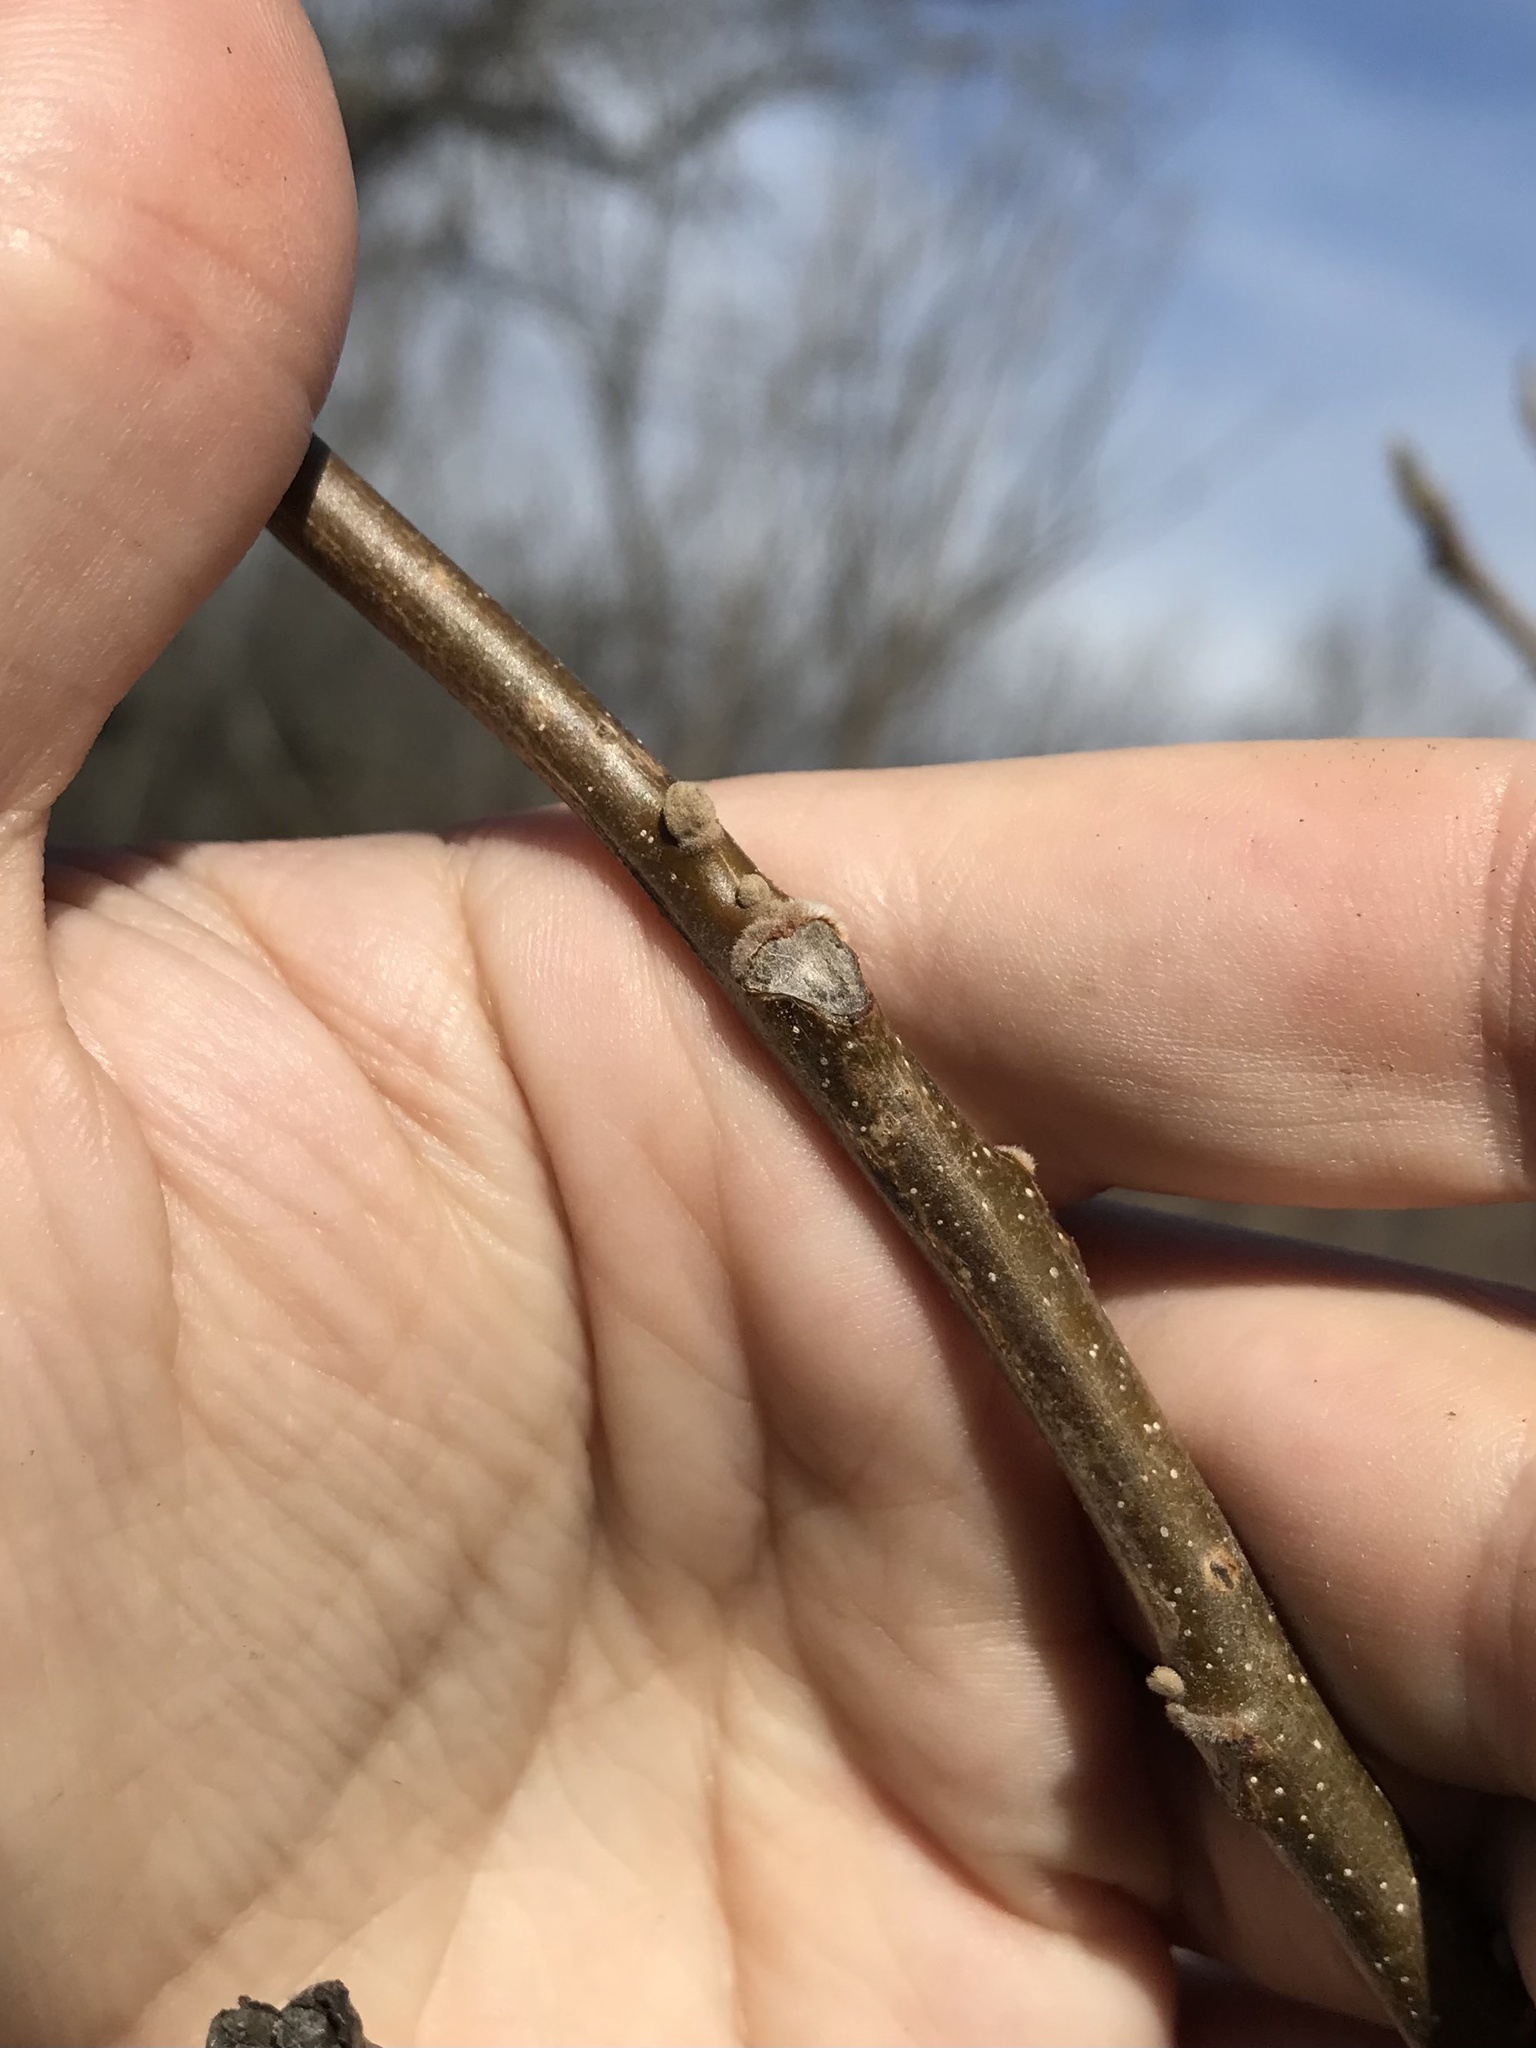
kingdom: Plantae
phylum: Tracheophyta
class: Magnoliopsida
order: Fagales
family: Juglandaceae
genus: Juglans
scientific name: Juglans cinerea
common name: Butternut
